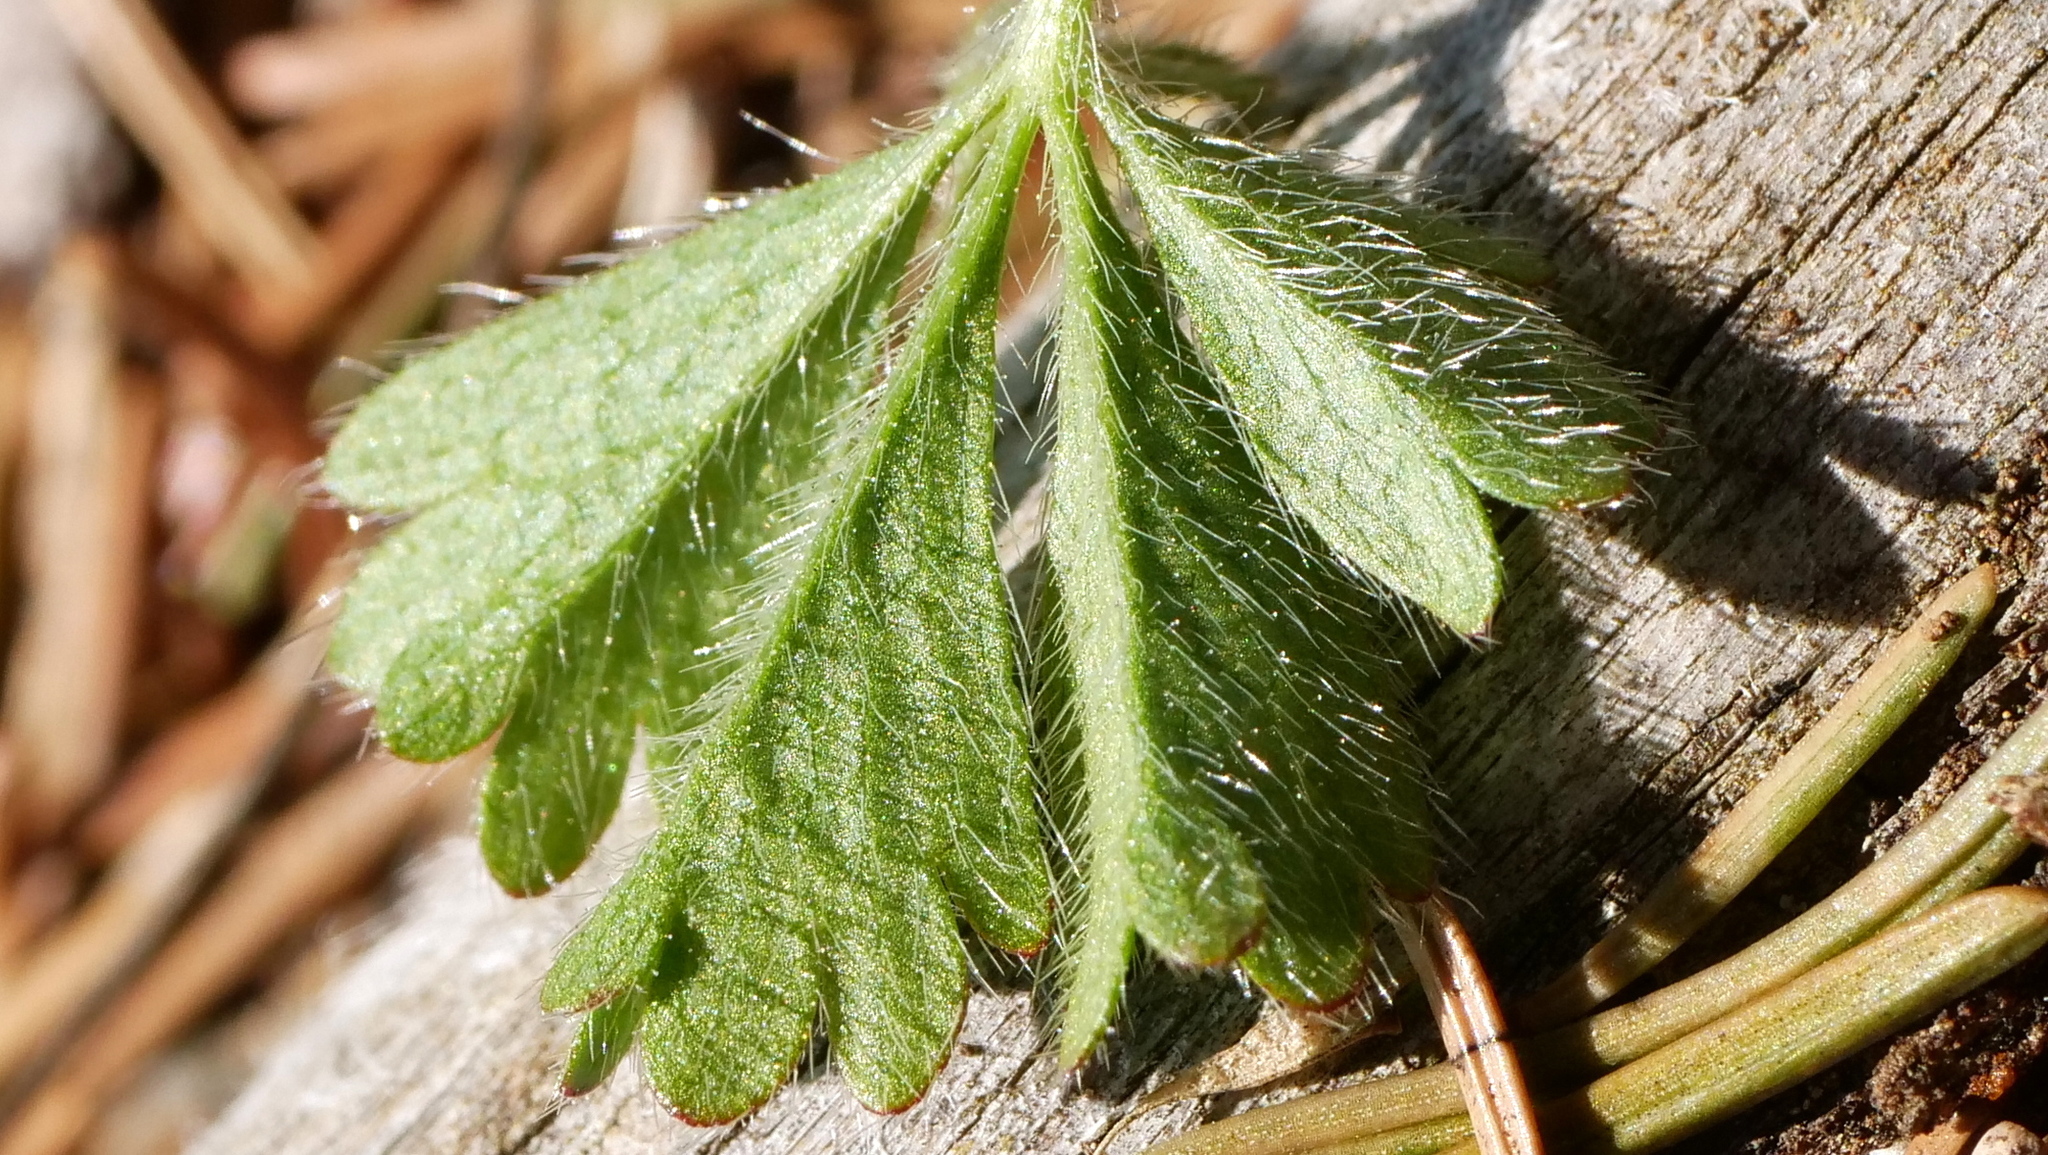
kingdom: Plantae
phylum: Tracheophyta
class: Magnoliopsida
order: Rosales
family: Rosaceae
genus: Potentilla
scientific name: Potentilla verna
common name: Spring cinquefoil
